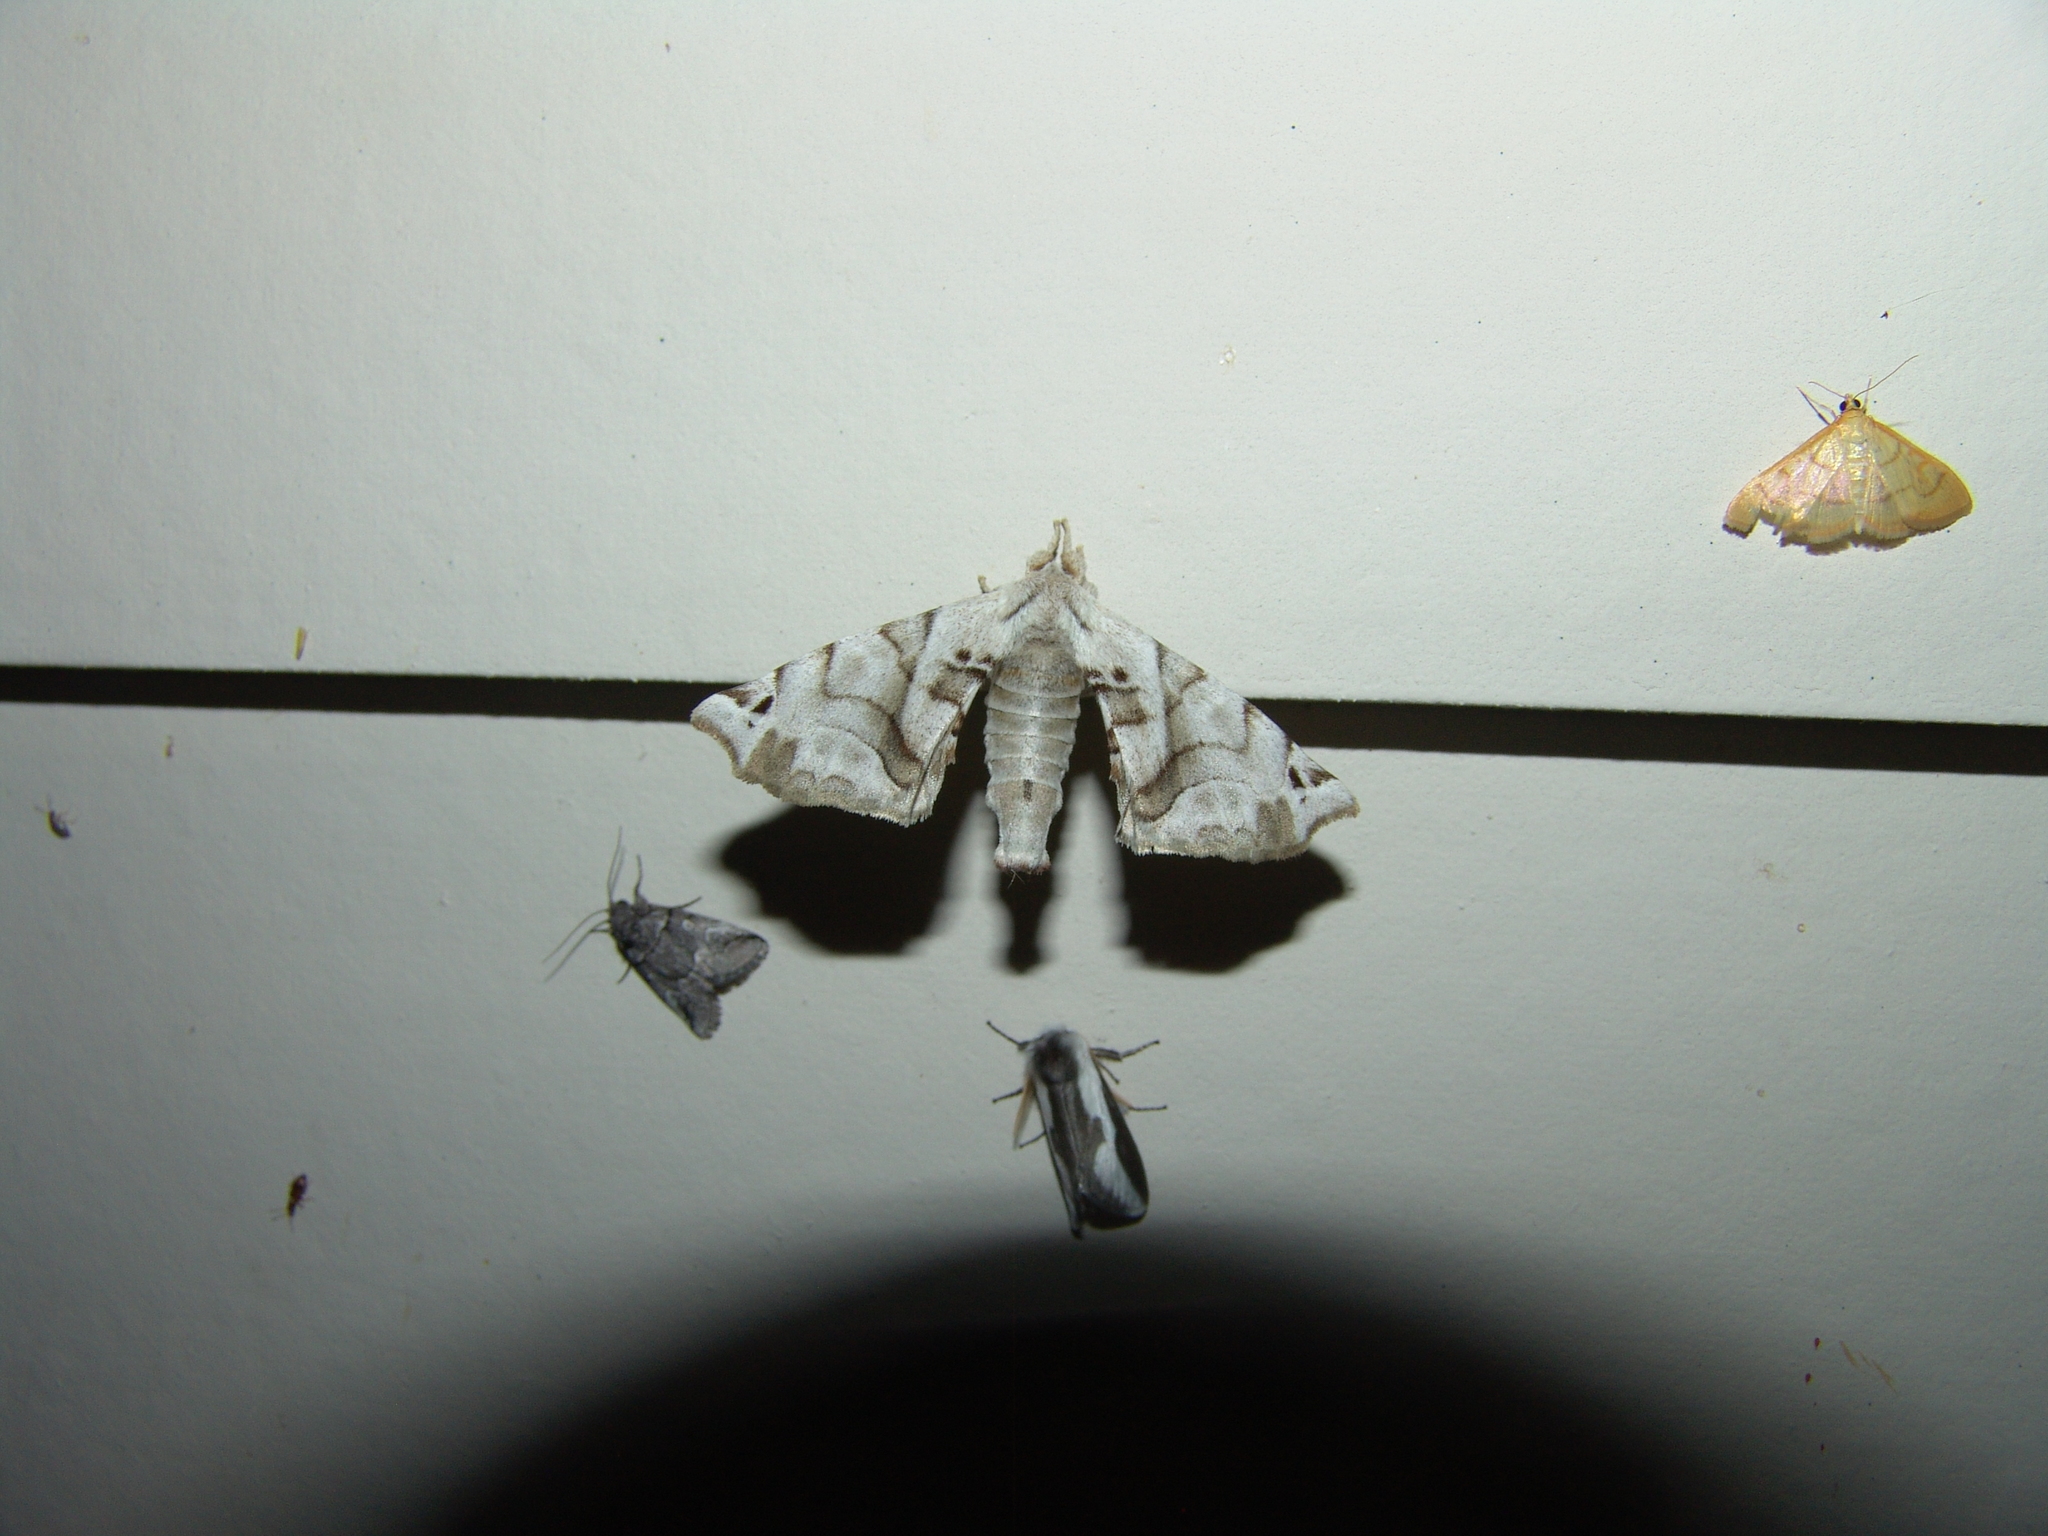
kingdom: Animalia
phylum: Arthropoda
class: Insecta
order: Lepidoptera
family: Apatelodidae
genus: Hygrochroa
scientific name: Hygrochroa Apatelodes pudefacta
